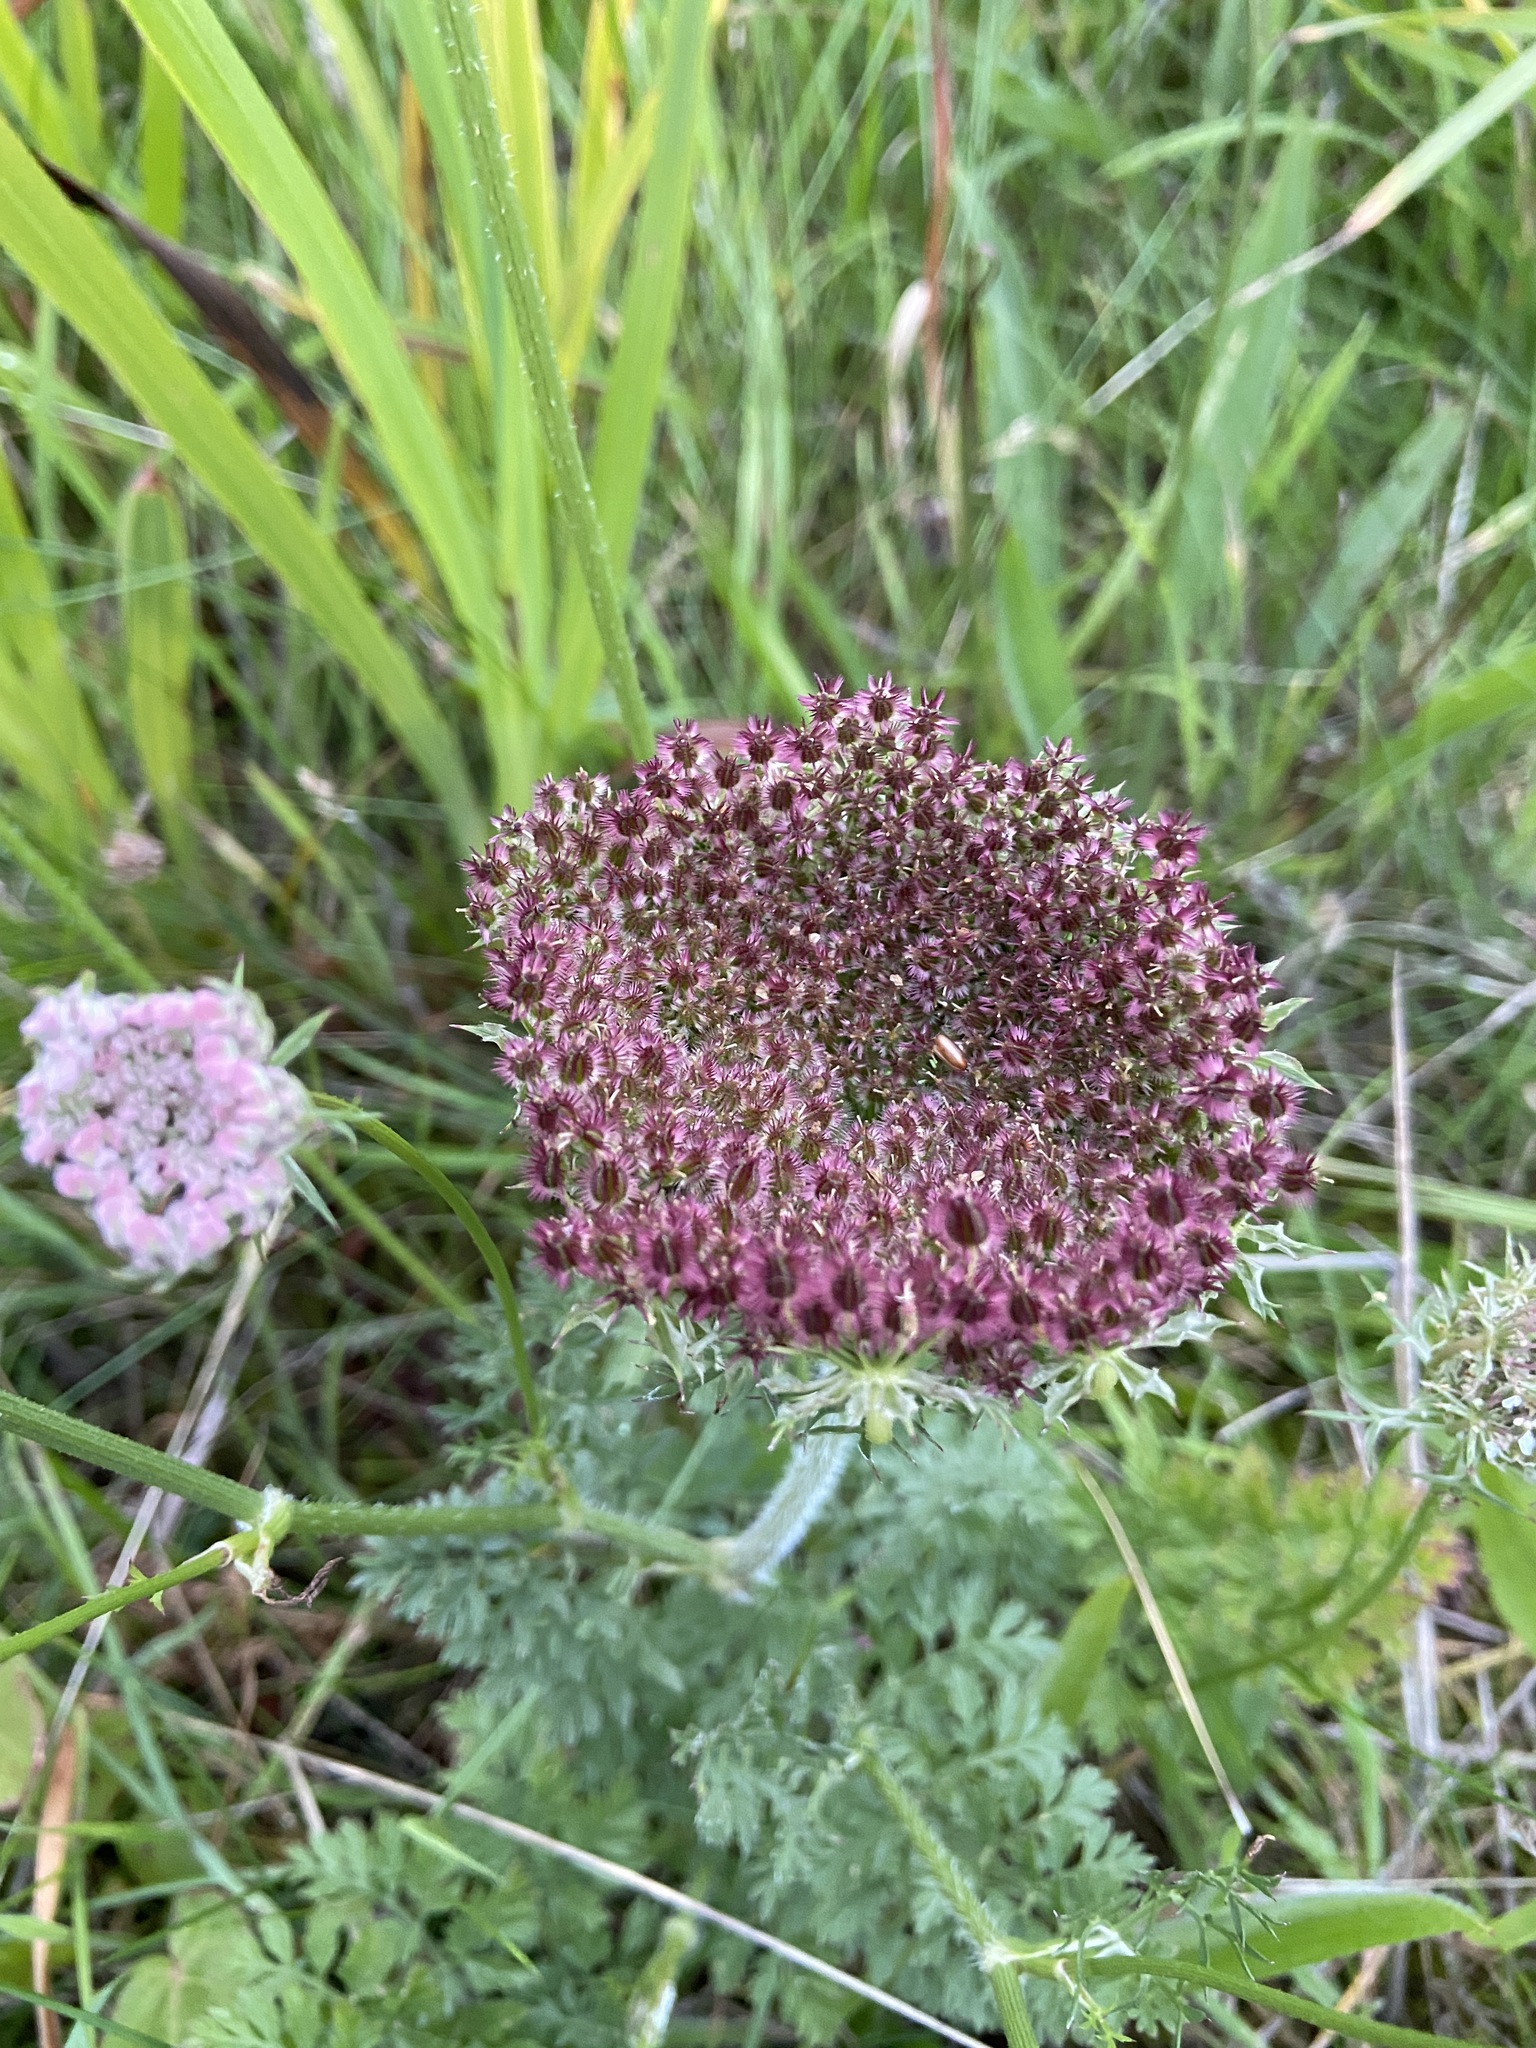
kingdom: Plantae
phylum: Tracheophyta
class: Magnoliopsida
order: Apiales
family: Apiaceae
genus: Daucus
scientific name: Daucus carota
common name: Wild carrot
